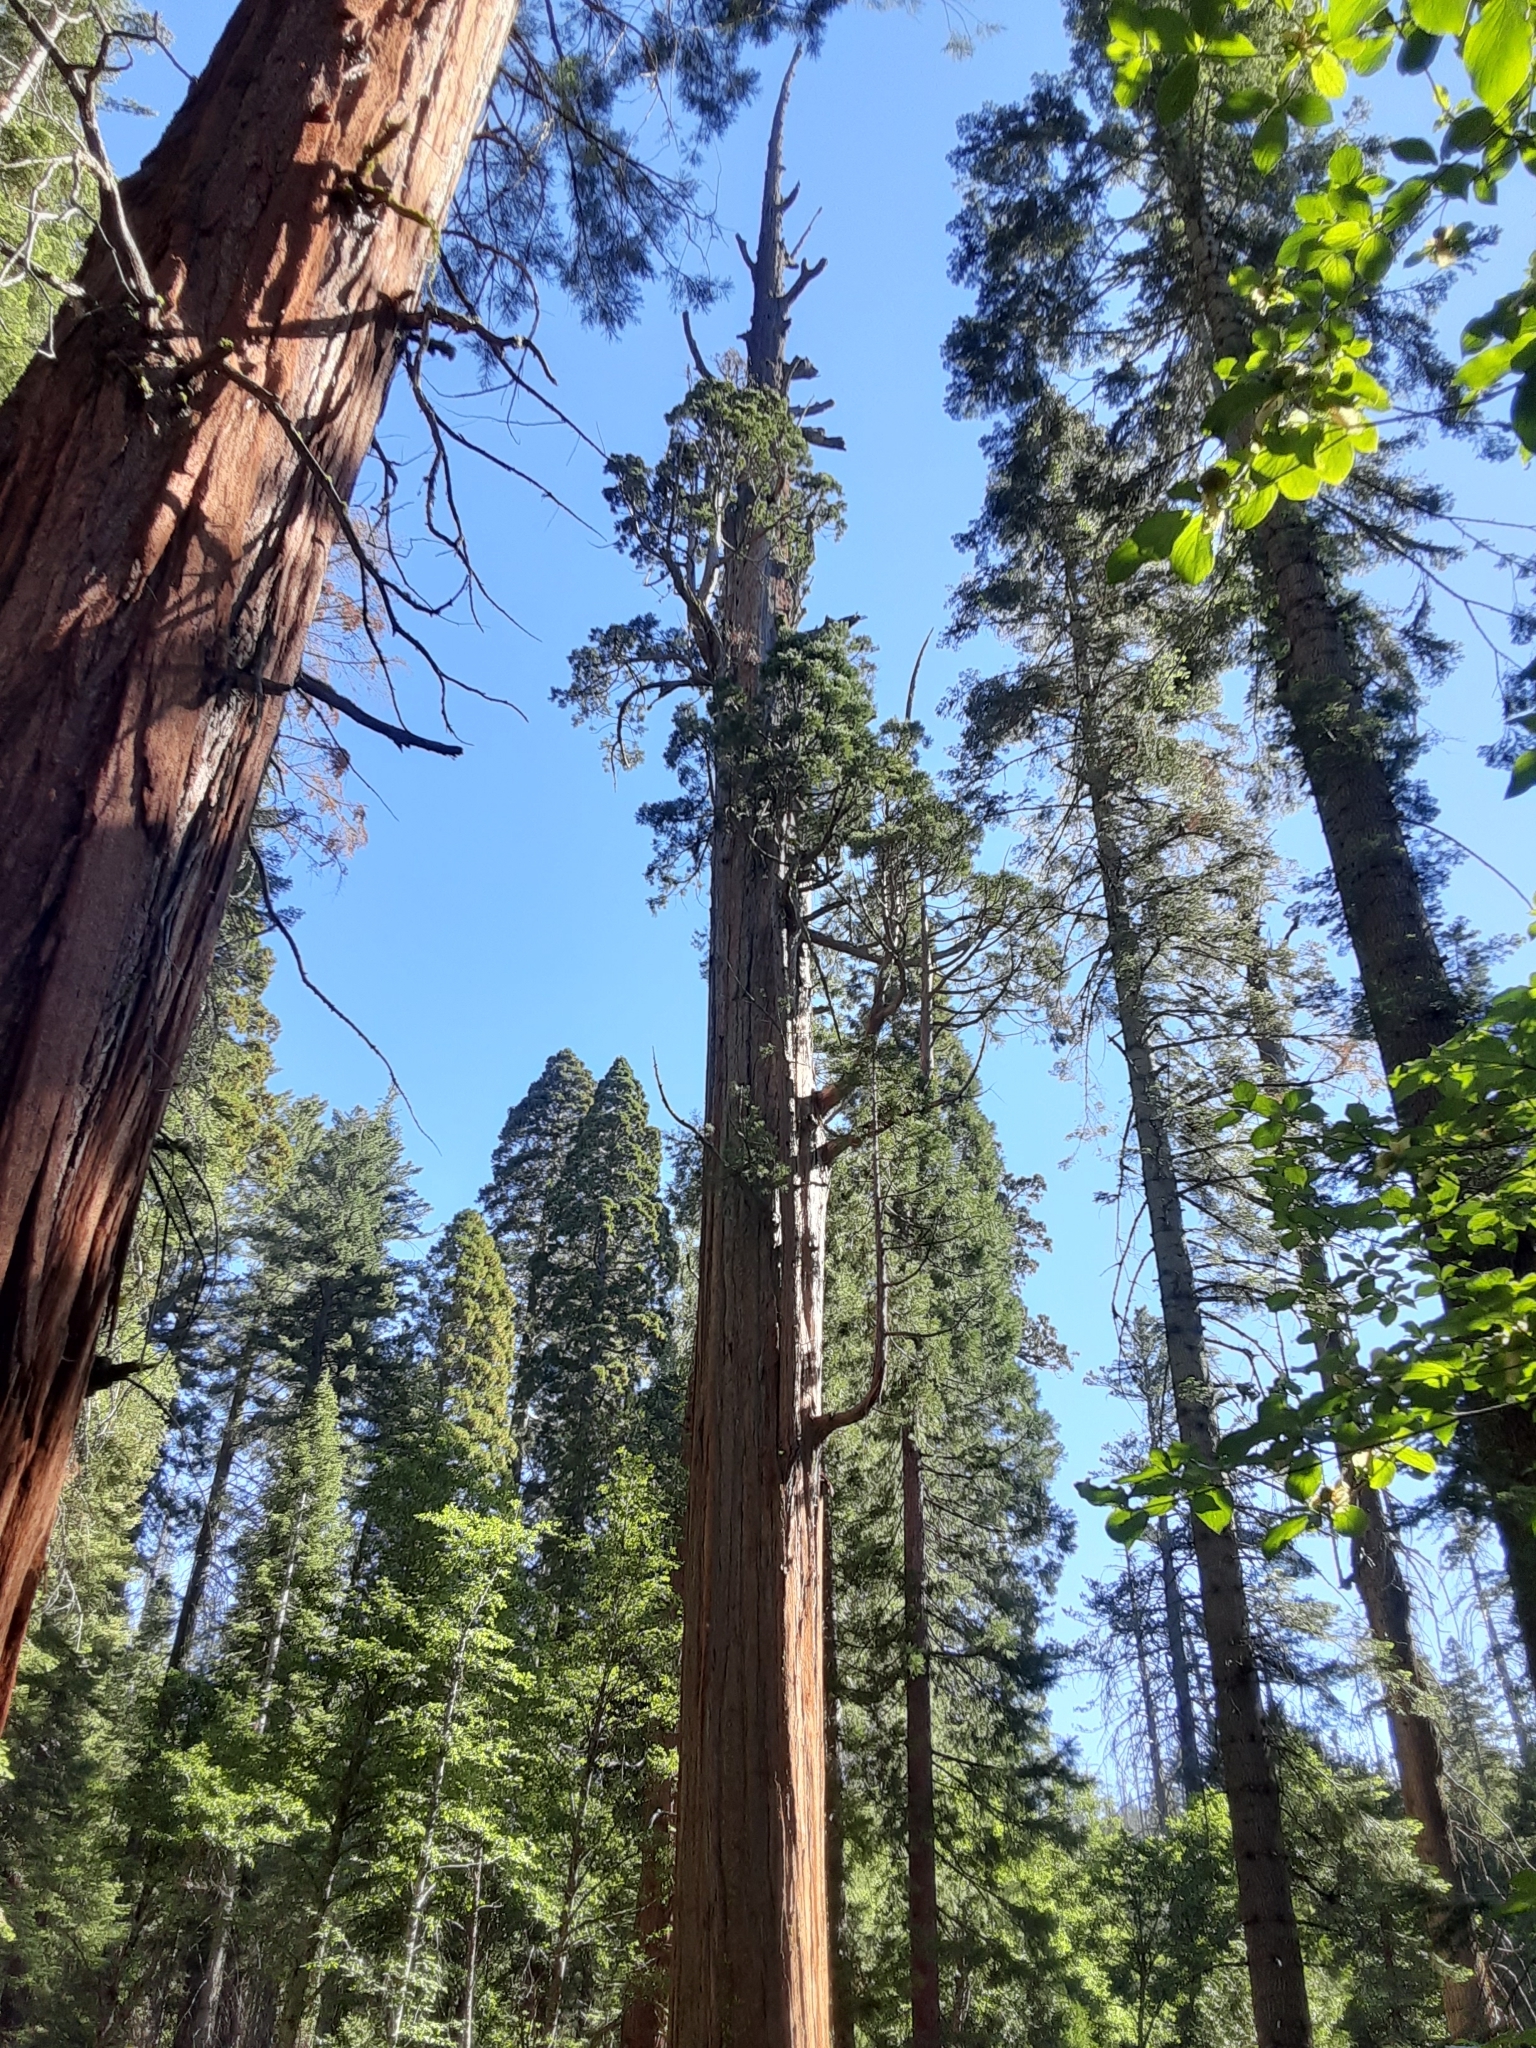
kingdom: Plantae
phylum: Tracheophyta
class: Pinopsida
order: Pinales
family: Cupressaceae
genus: Sequoiadendron
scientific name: Sequoiadendron giganteum
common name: Wellingtonia
